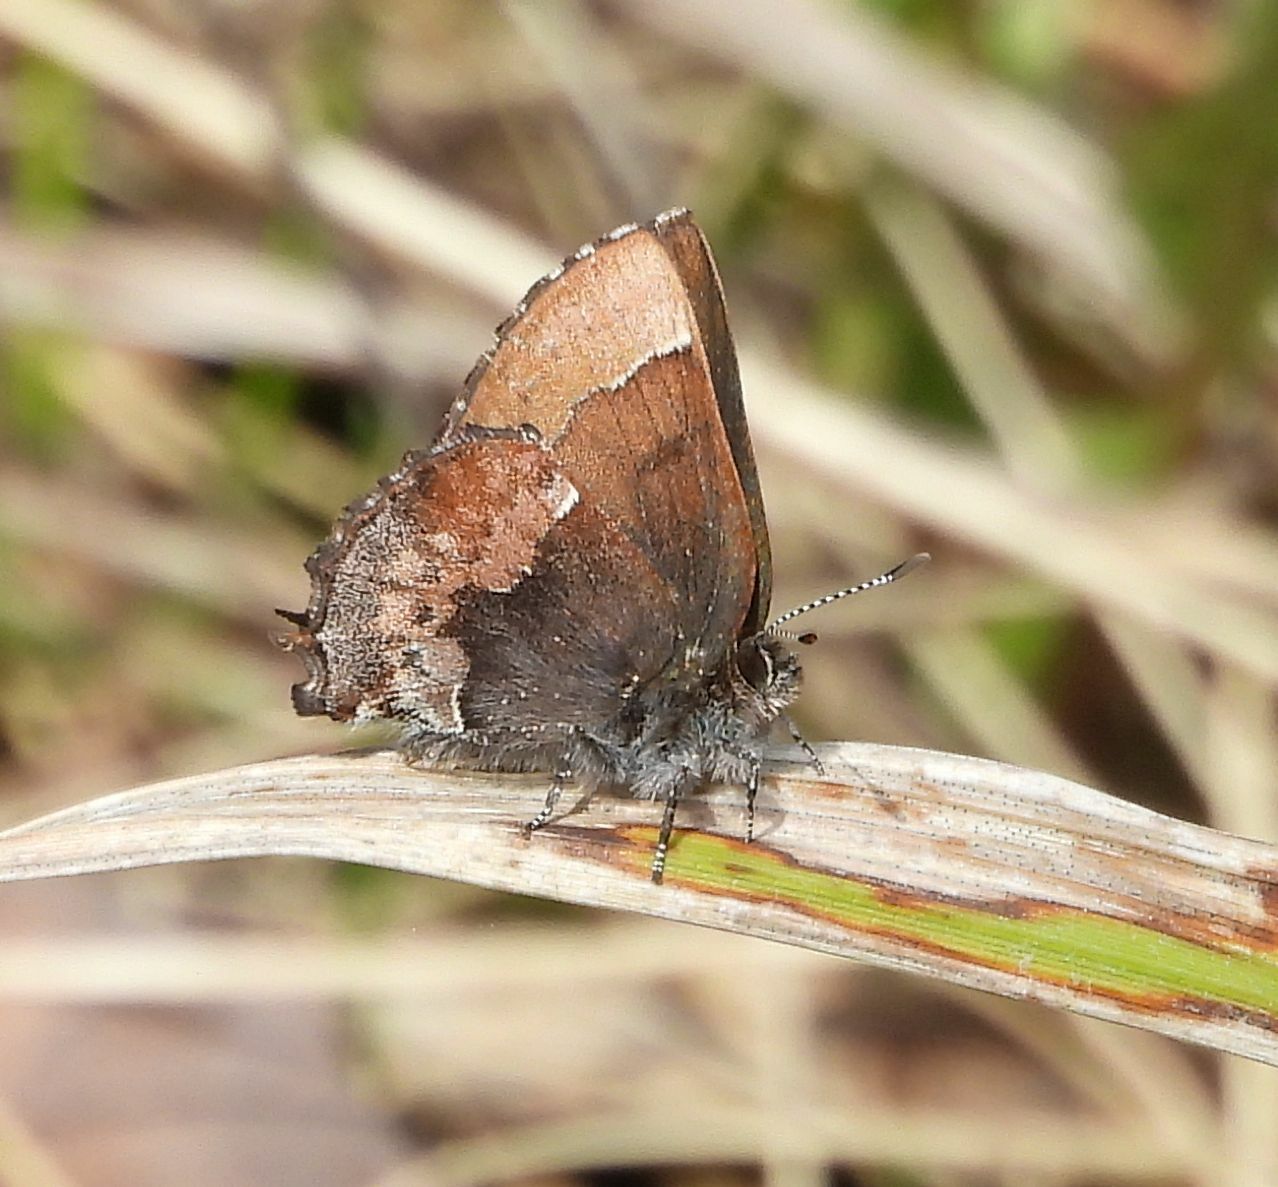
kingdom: Animalia
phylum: Arthropoda
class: Insecta
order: Lepidoptera
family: Lycaenidae
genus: Incisalia
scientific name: Incisalia henrici
